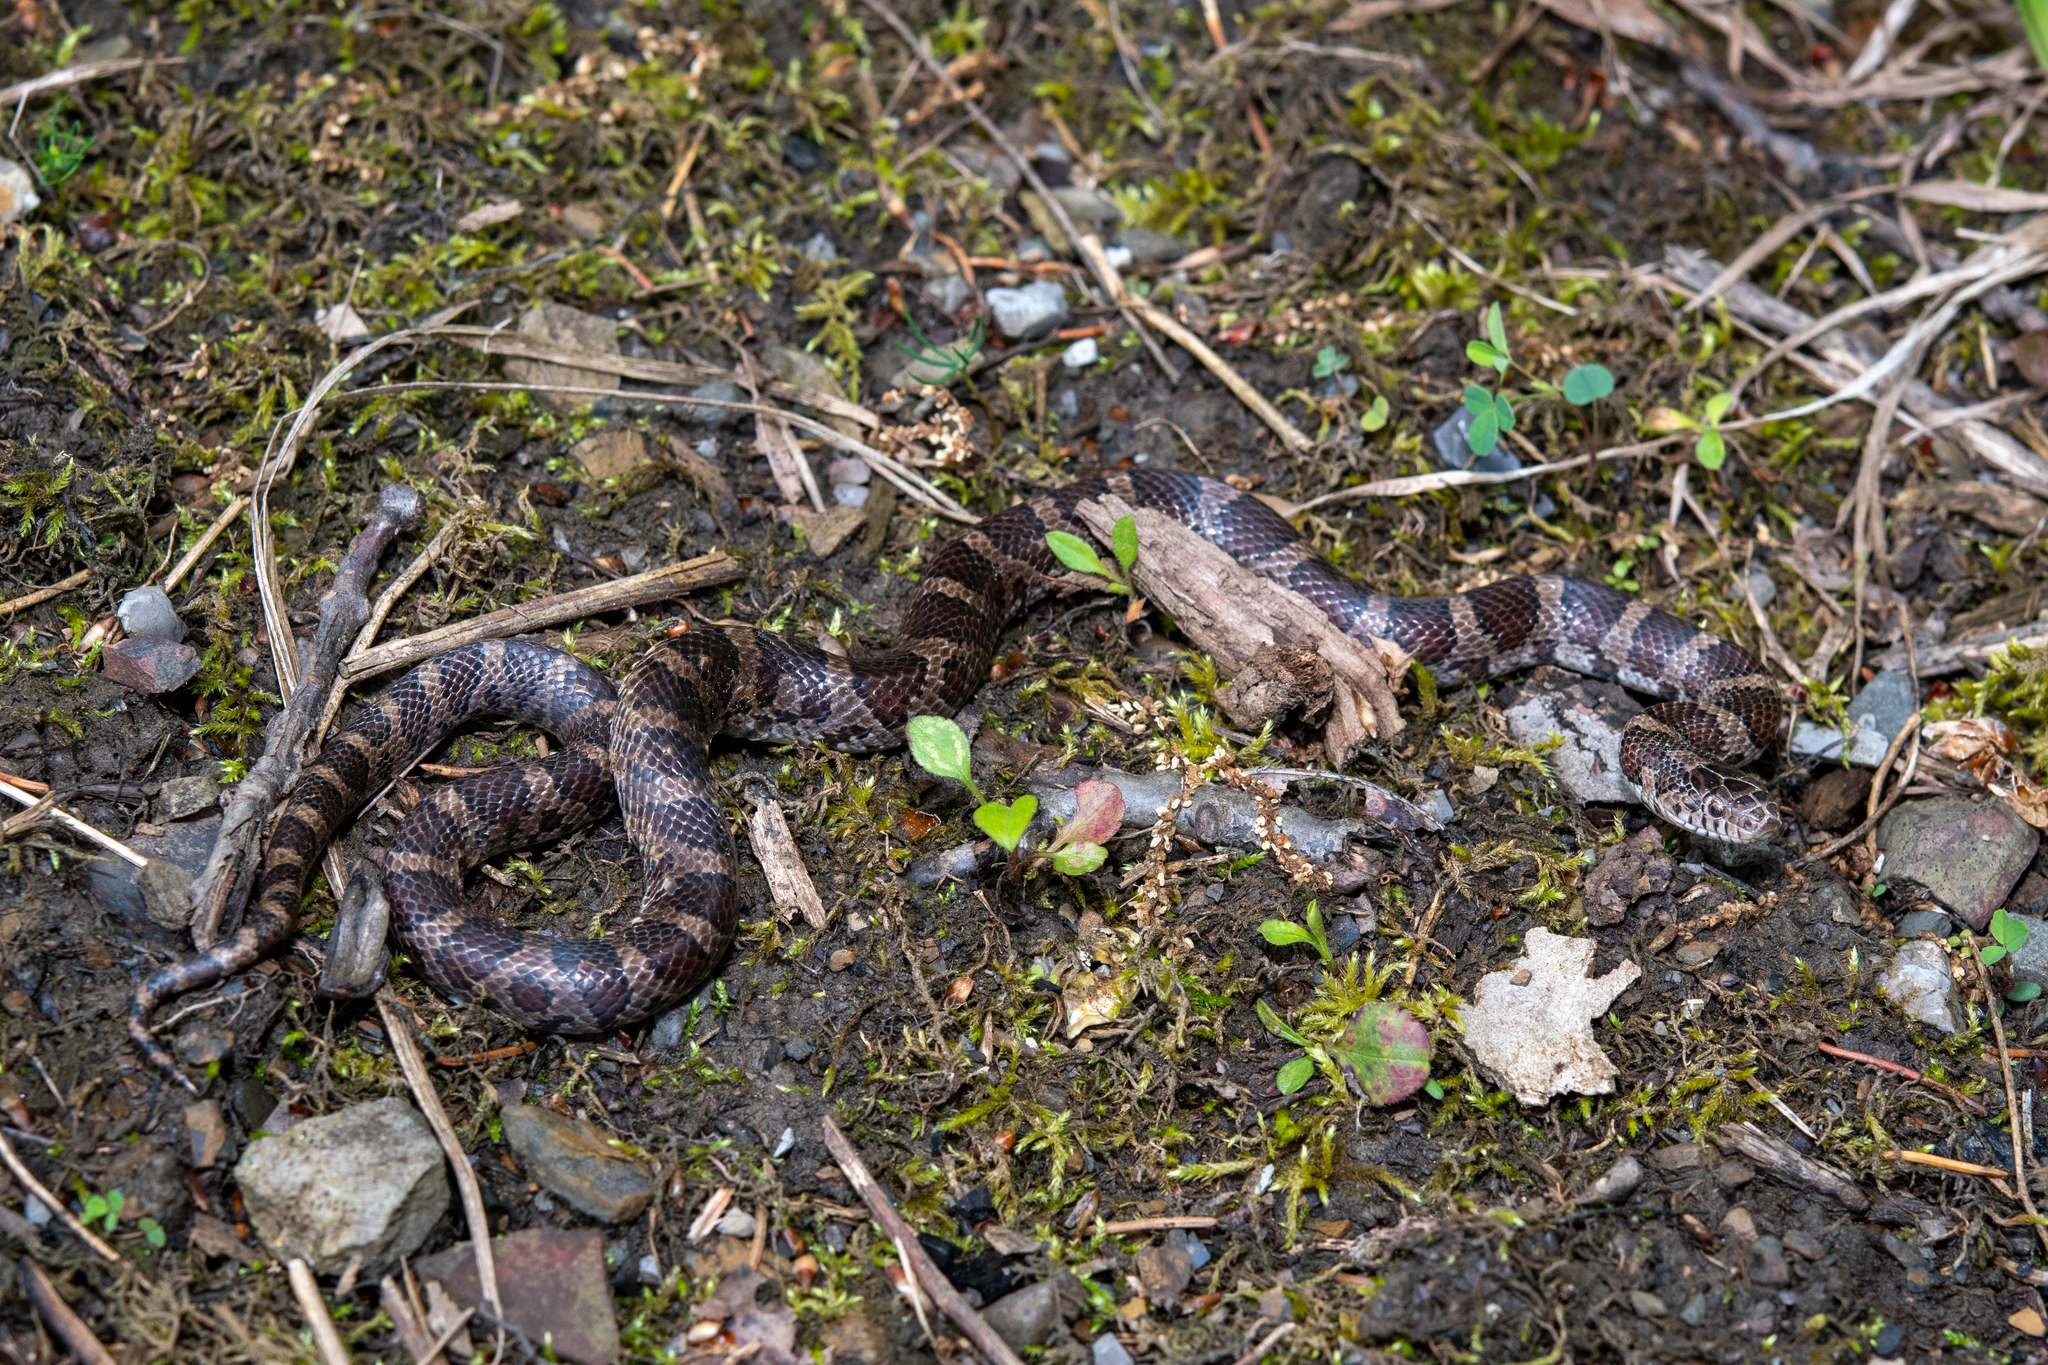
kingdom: Animalia
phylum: Chordata
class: Squamata
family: Colubridae
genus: Lampropeltis
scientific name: Lampropeltis triangulum
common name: Eastern milksnake
